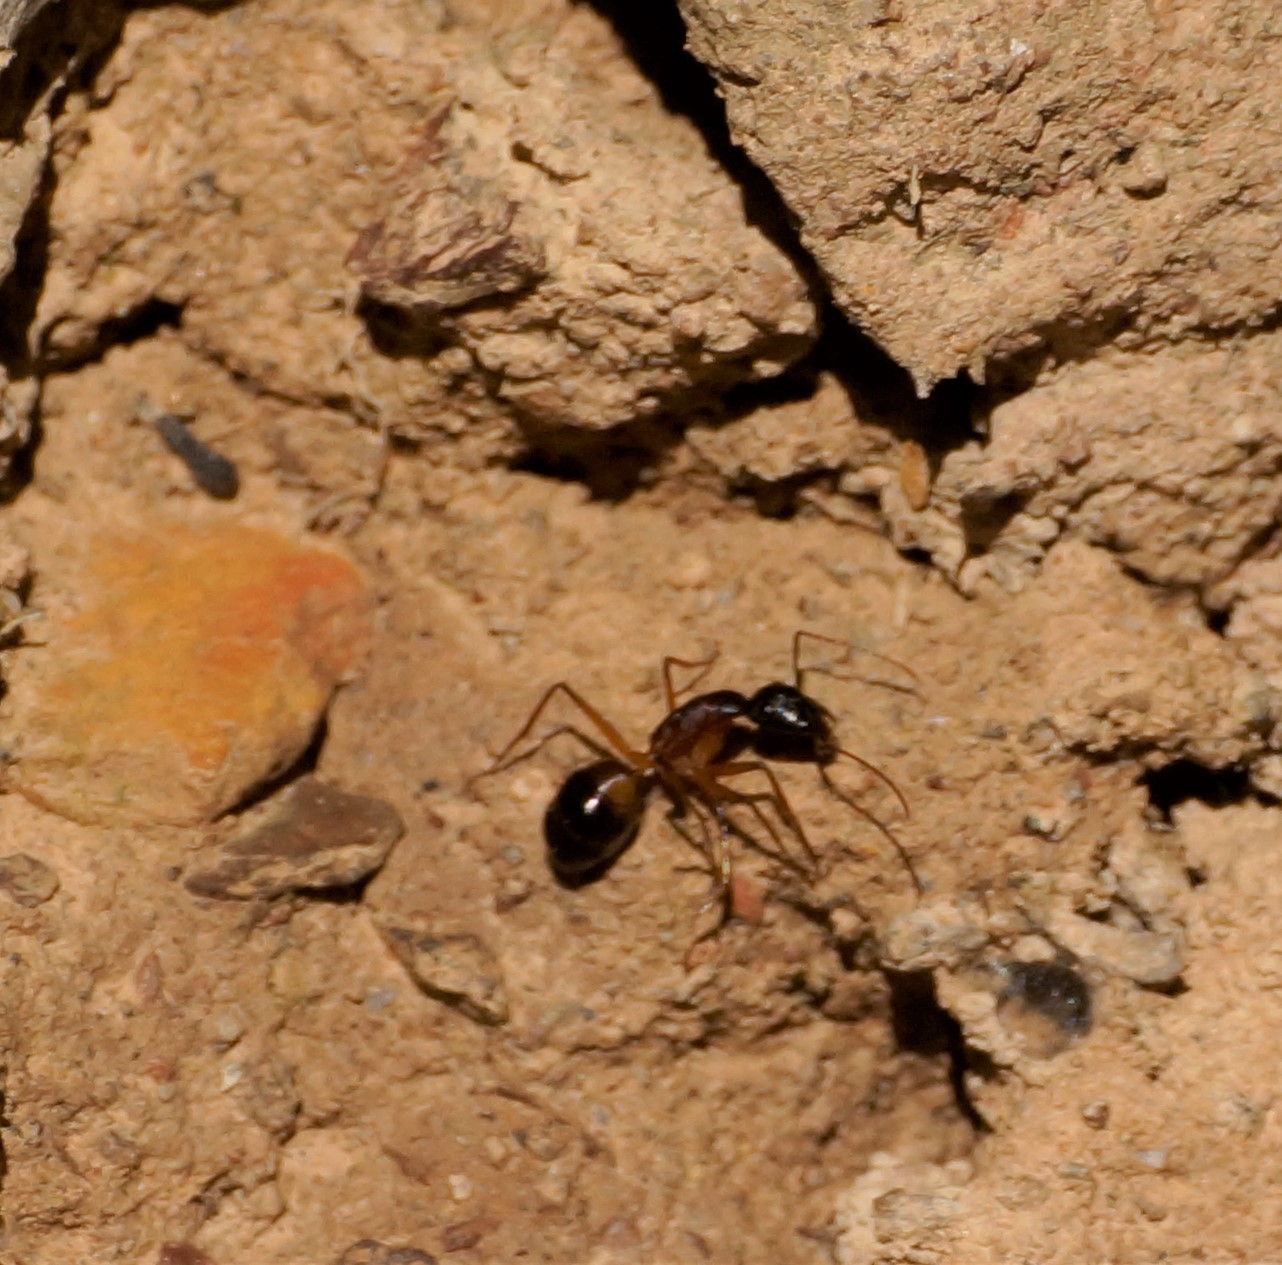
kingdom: Animalia
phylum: Arthropoda
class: Insecta
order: Hymenoptera
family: Formicidae
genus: Camponotus
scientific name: Camponotus consobrinus
